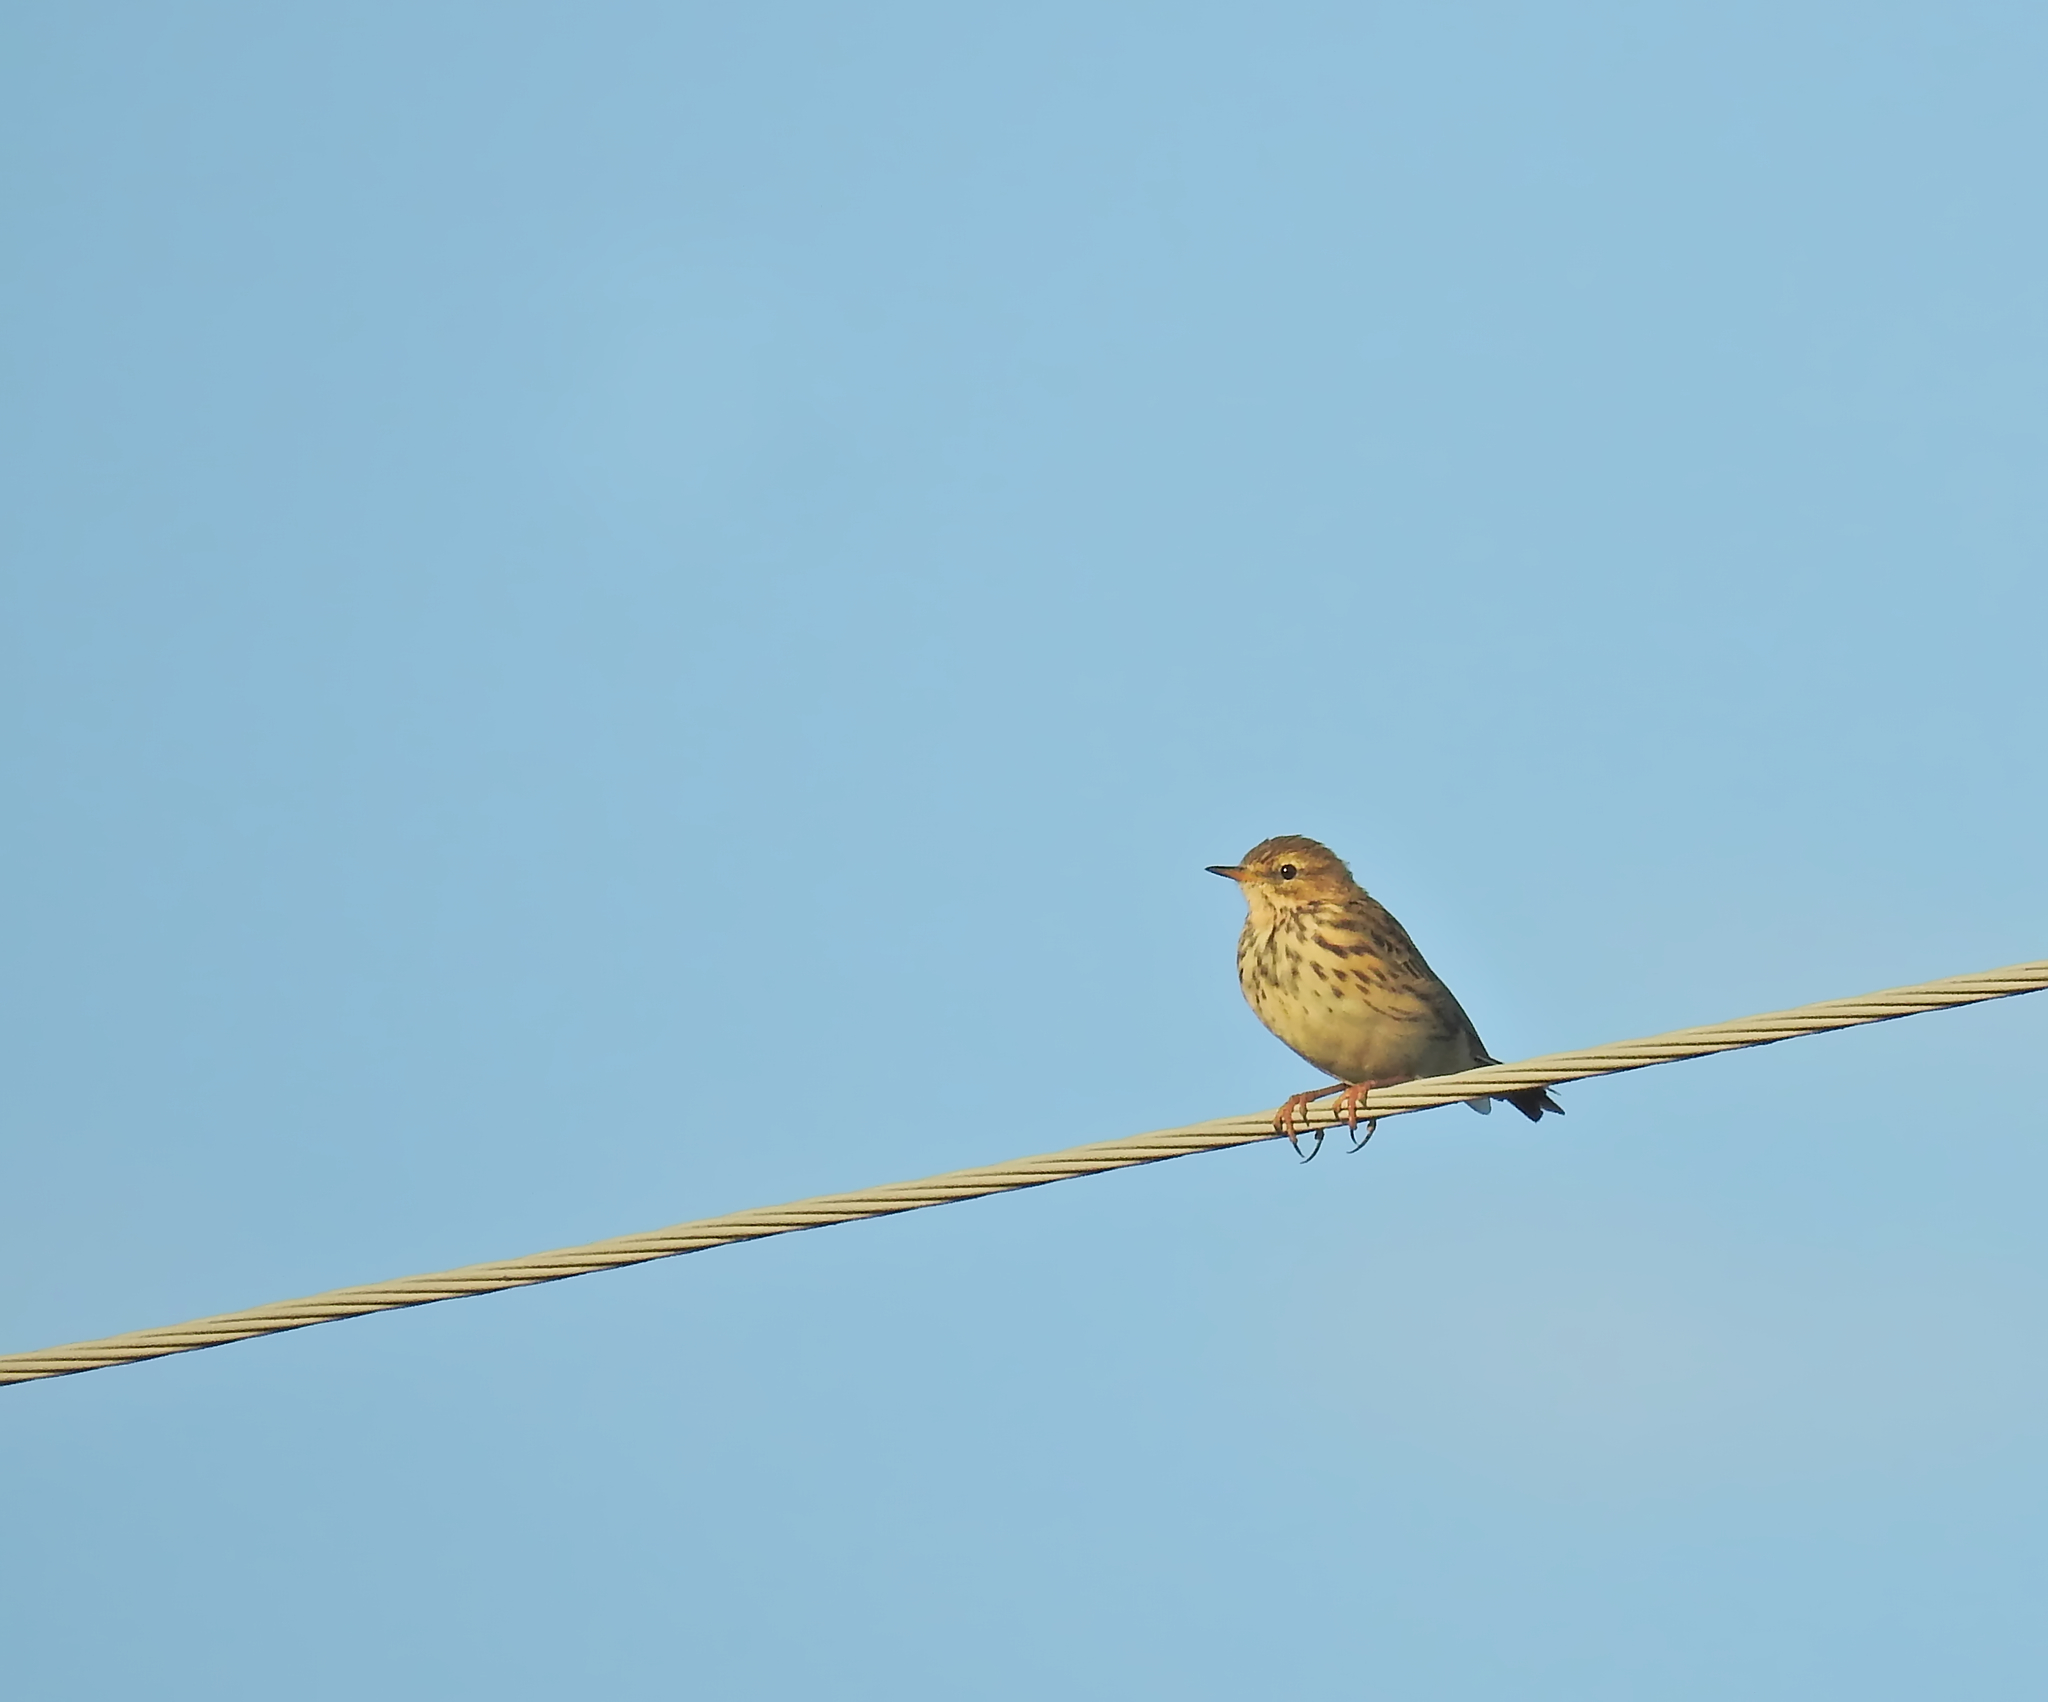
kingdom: Animalia
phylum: Chordata
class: Aves
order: Passeriformes
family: Motacillidae
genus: Anthus
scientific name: Anthus pratensis
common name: Meadow pipit
